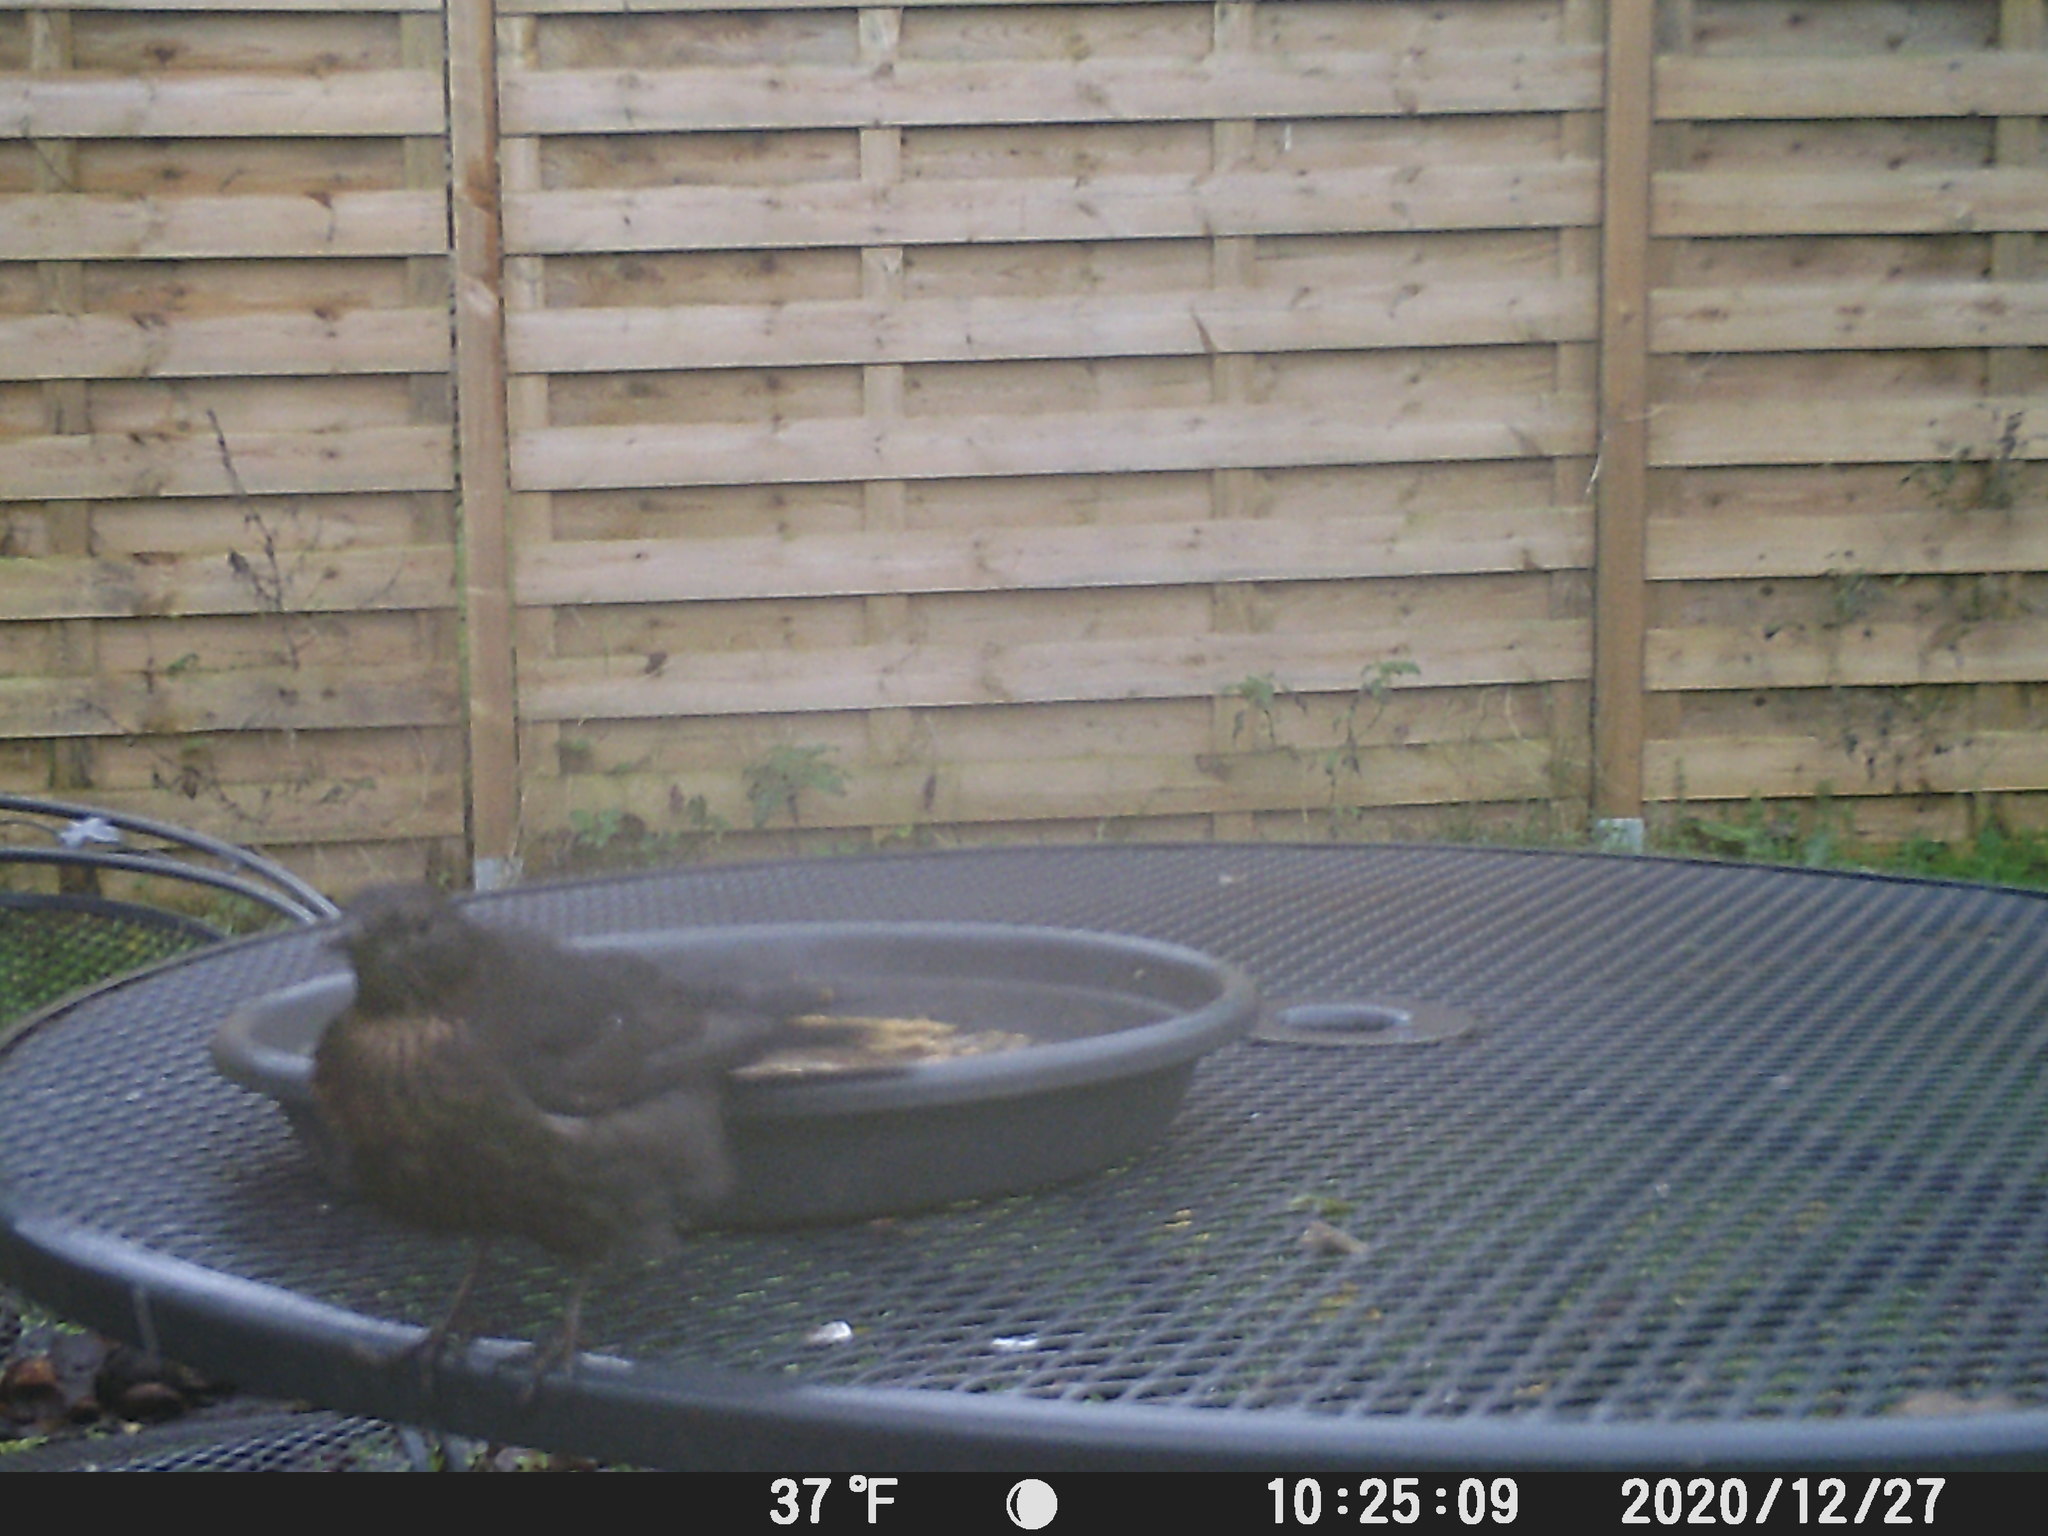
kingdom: Animalia
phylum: Chordata
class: Aves
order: Passeriformes
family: Turdidae
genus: Turdus
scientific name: Turdus merula
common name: Common blackbird
